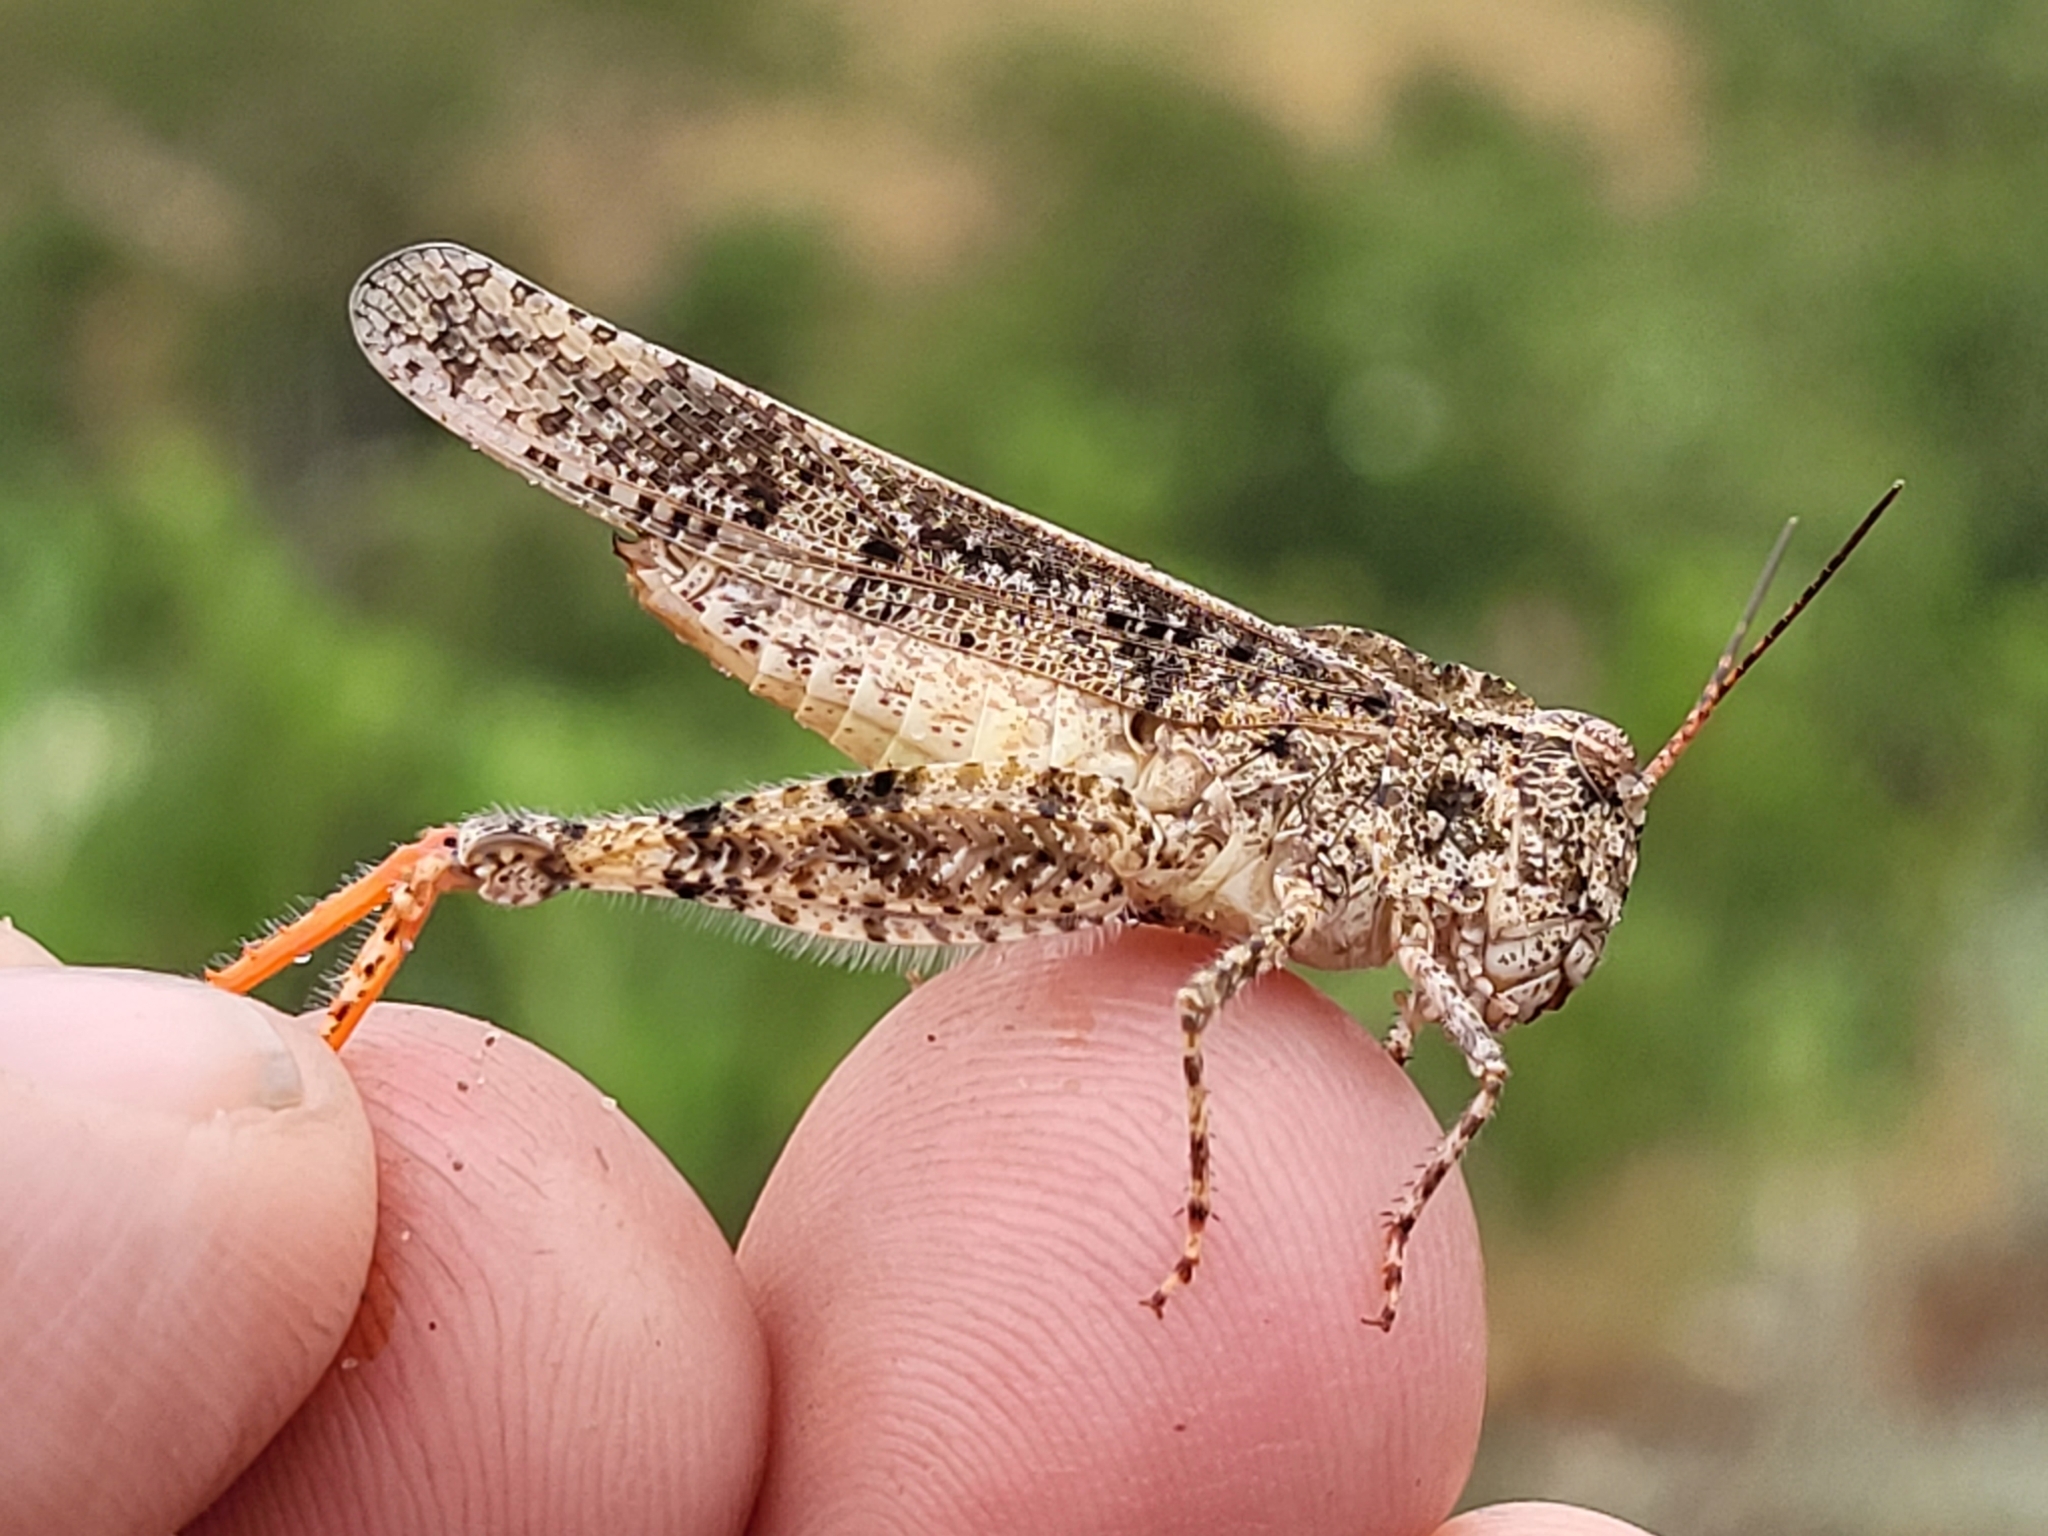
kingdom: Animalia
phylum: Arthropoda
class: Insecta
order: Orthoptera
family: Acrididae
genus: Spharagemon
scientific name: Spharagemon collare
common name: Mottled sand grasshopper
